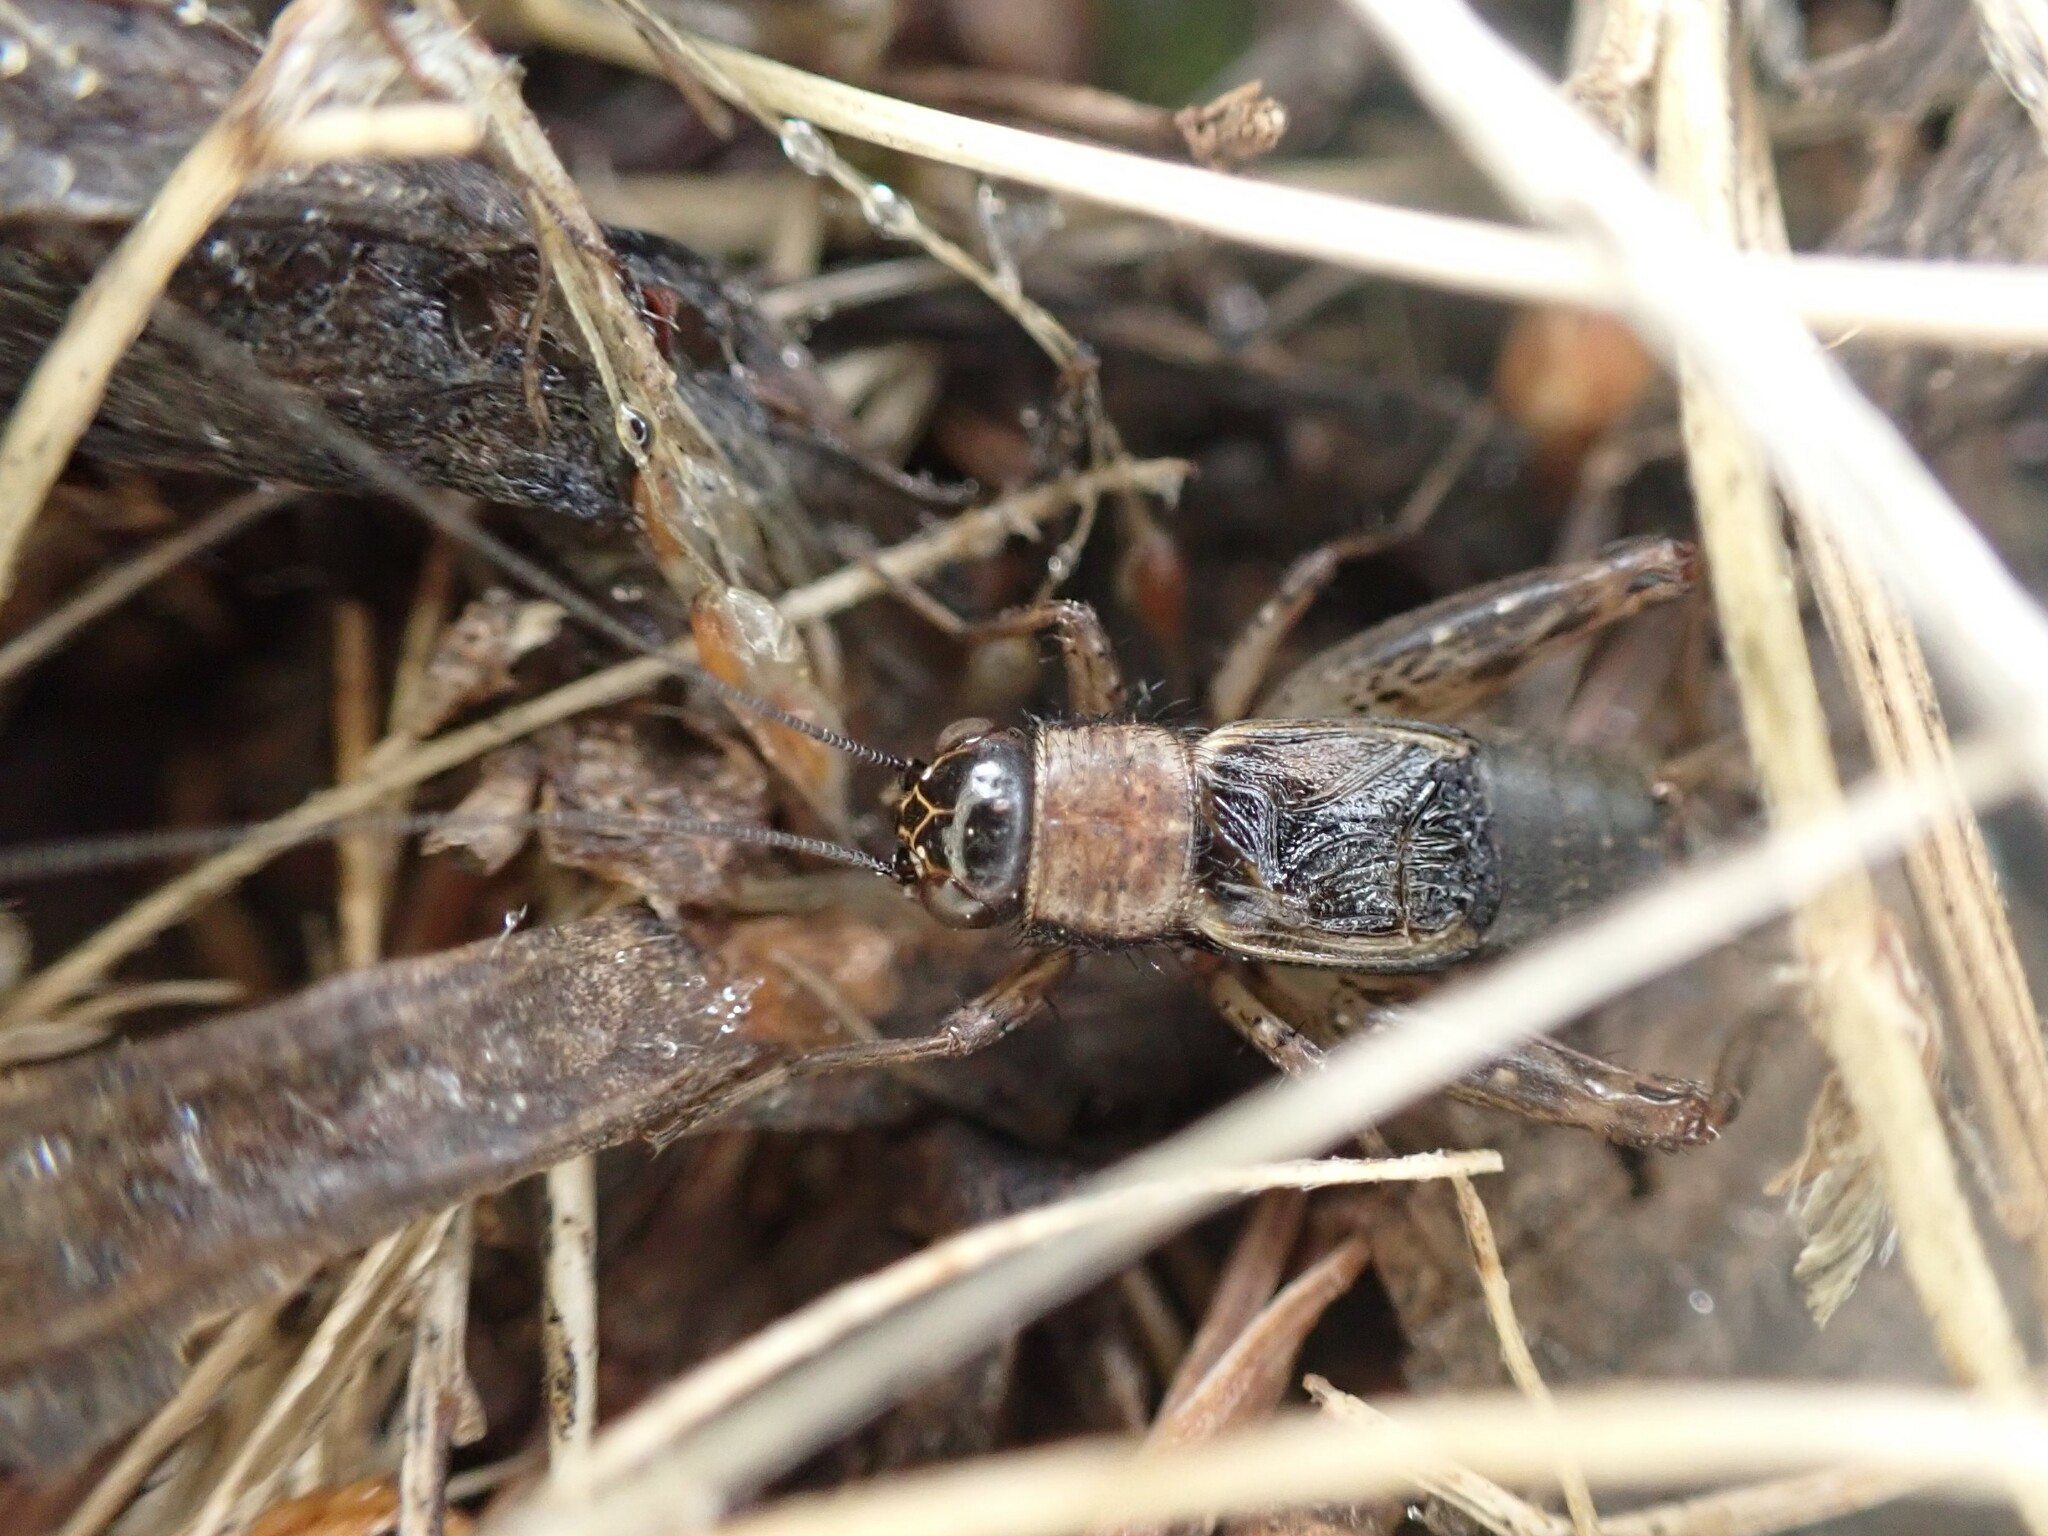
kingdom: Animalia
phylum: Arthropoda
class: Insecta
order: Orthoptera
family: Trigonidiidae
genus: Nemobius
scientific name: Nemobius sylvestris
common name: Wood-cricket
